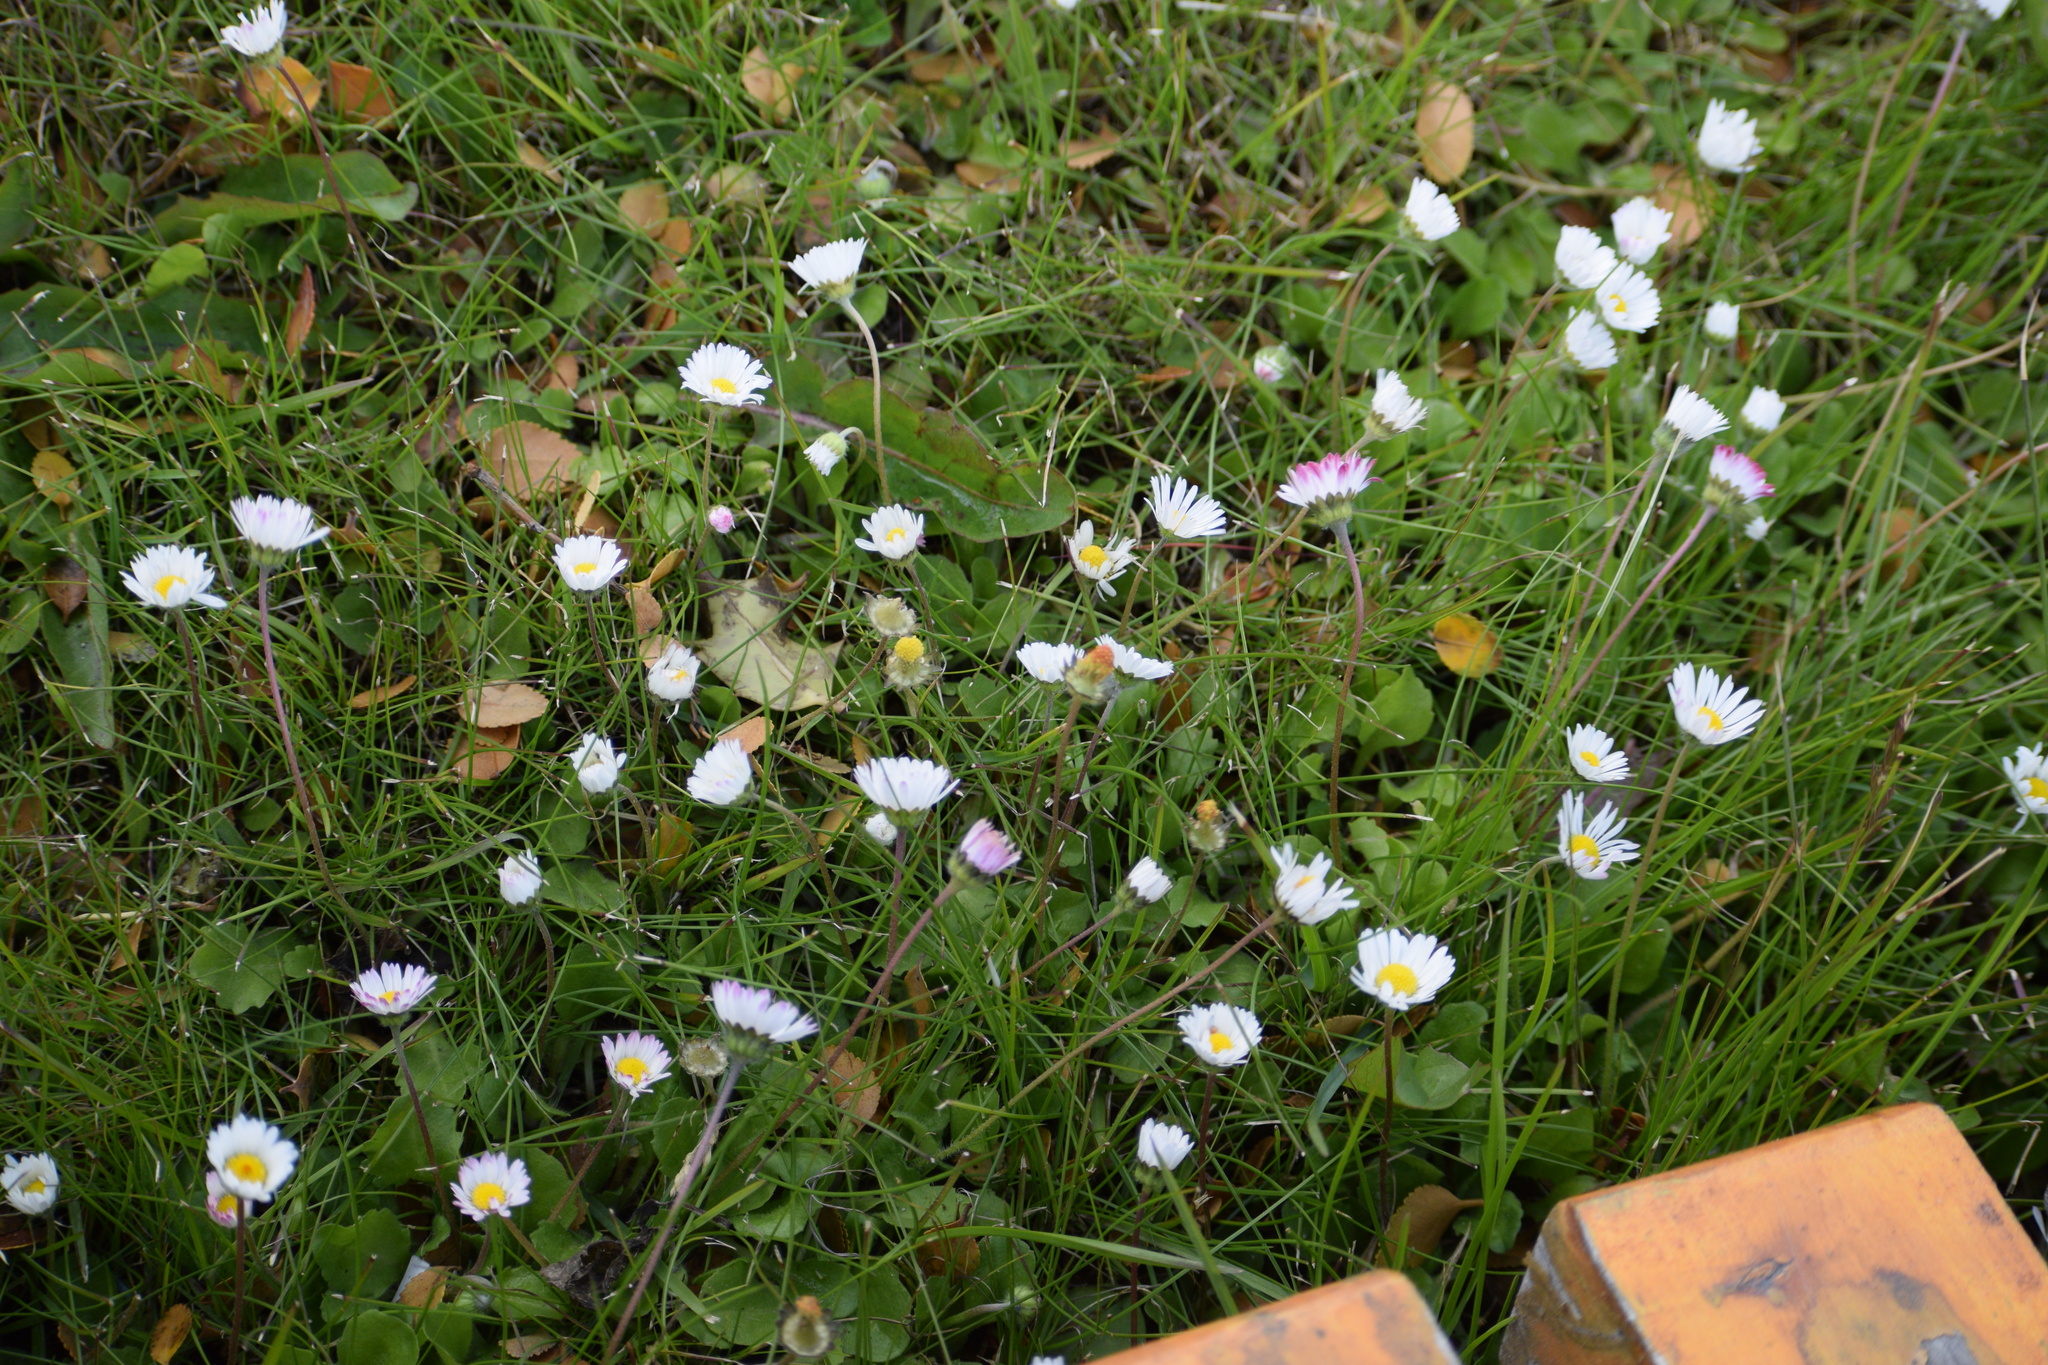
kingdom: Plantae
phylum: Tracheophyta
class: Magnoliopsida
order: Asterales
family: Asteraceae
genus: Bellis
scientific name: Bellis perennis
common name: Lawndaisy
